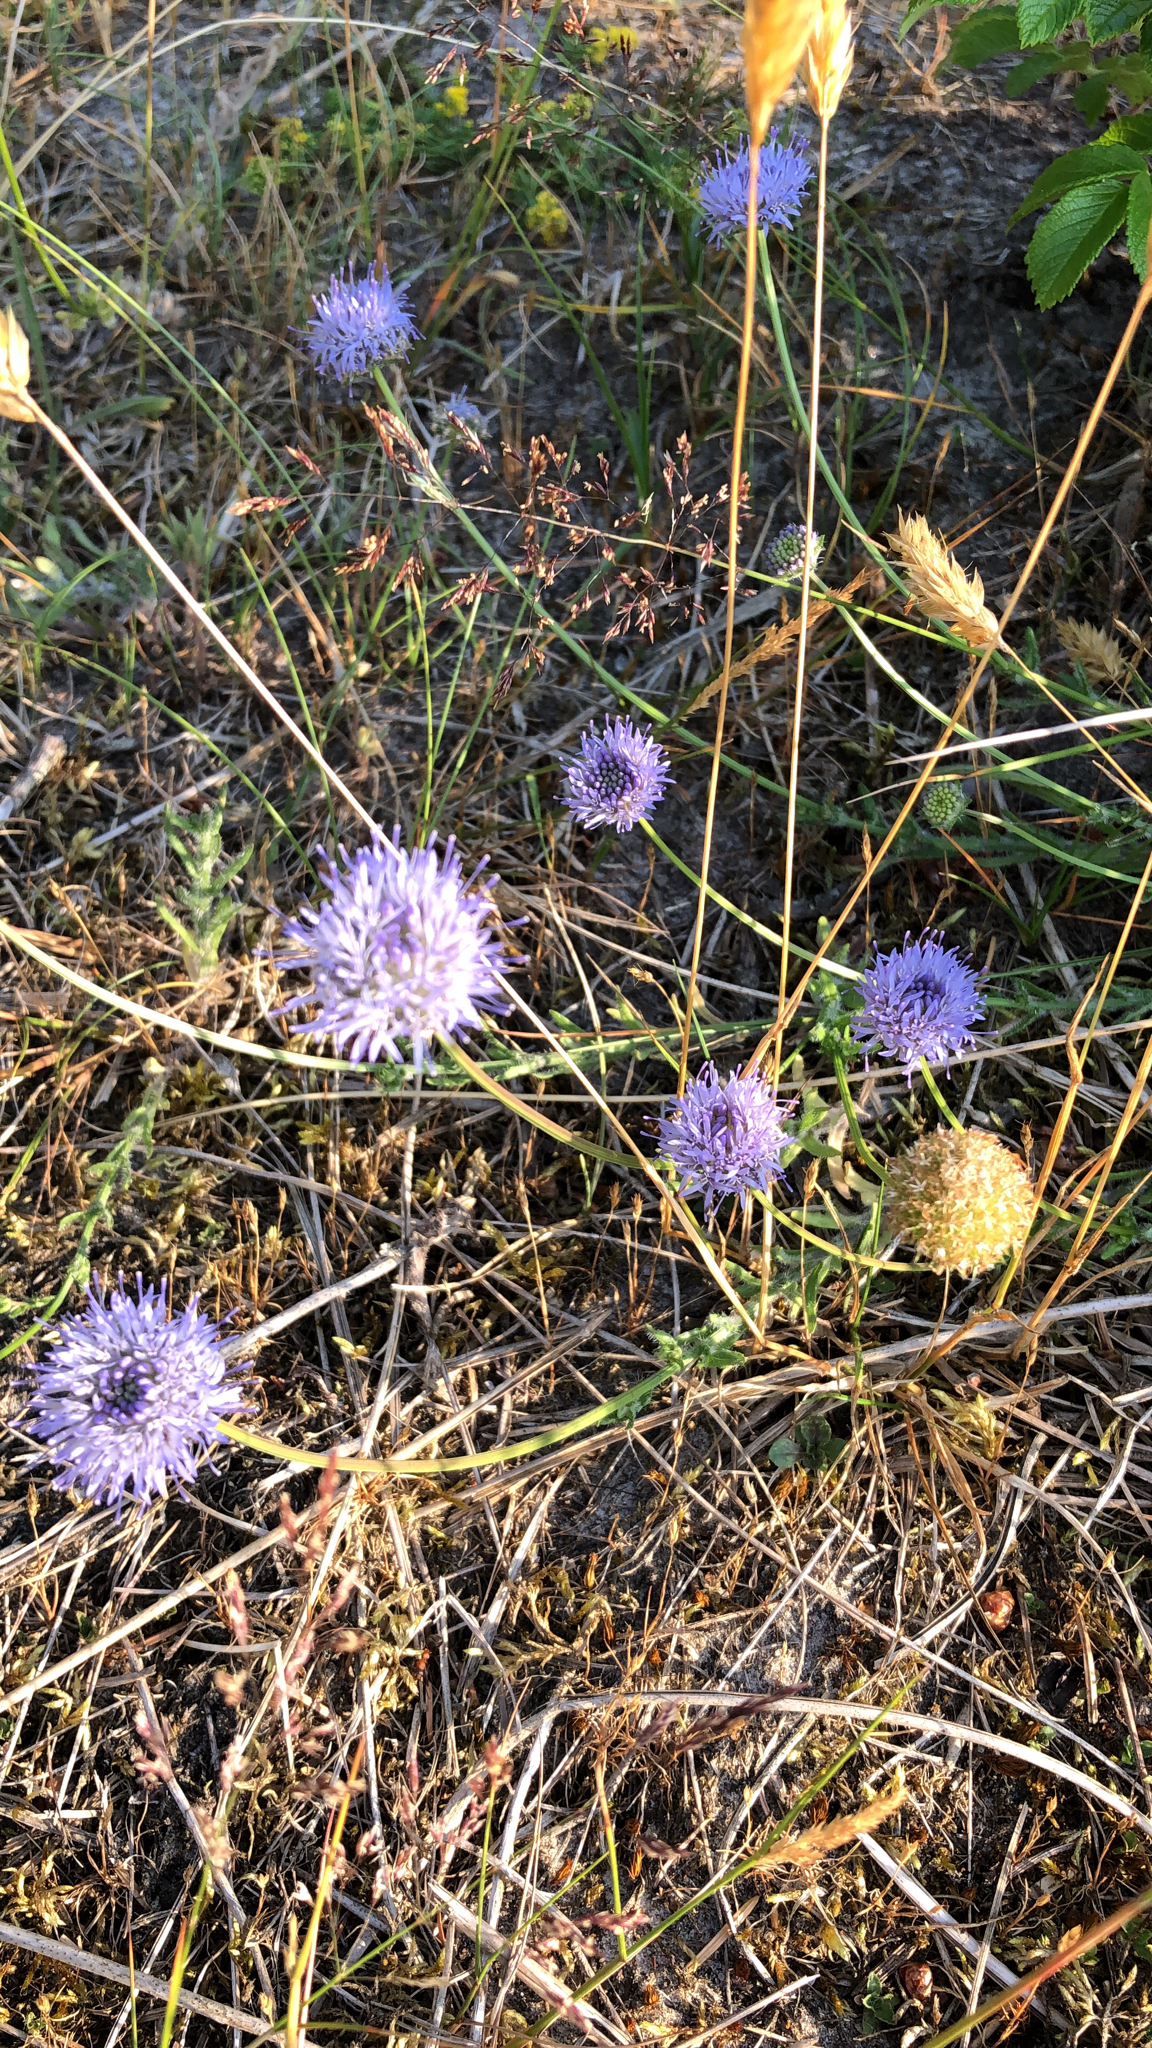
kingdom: Plantae
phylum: Tracheophyta
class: Magnoliopsida
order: Asterales
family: Campanulaceae
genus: Jasione
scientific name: Jasione montana
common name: Sheep's-bit
